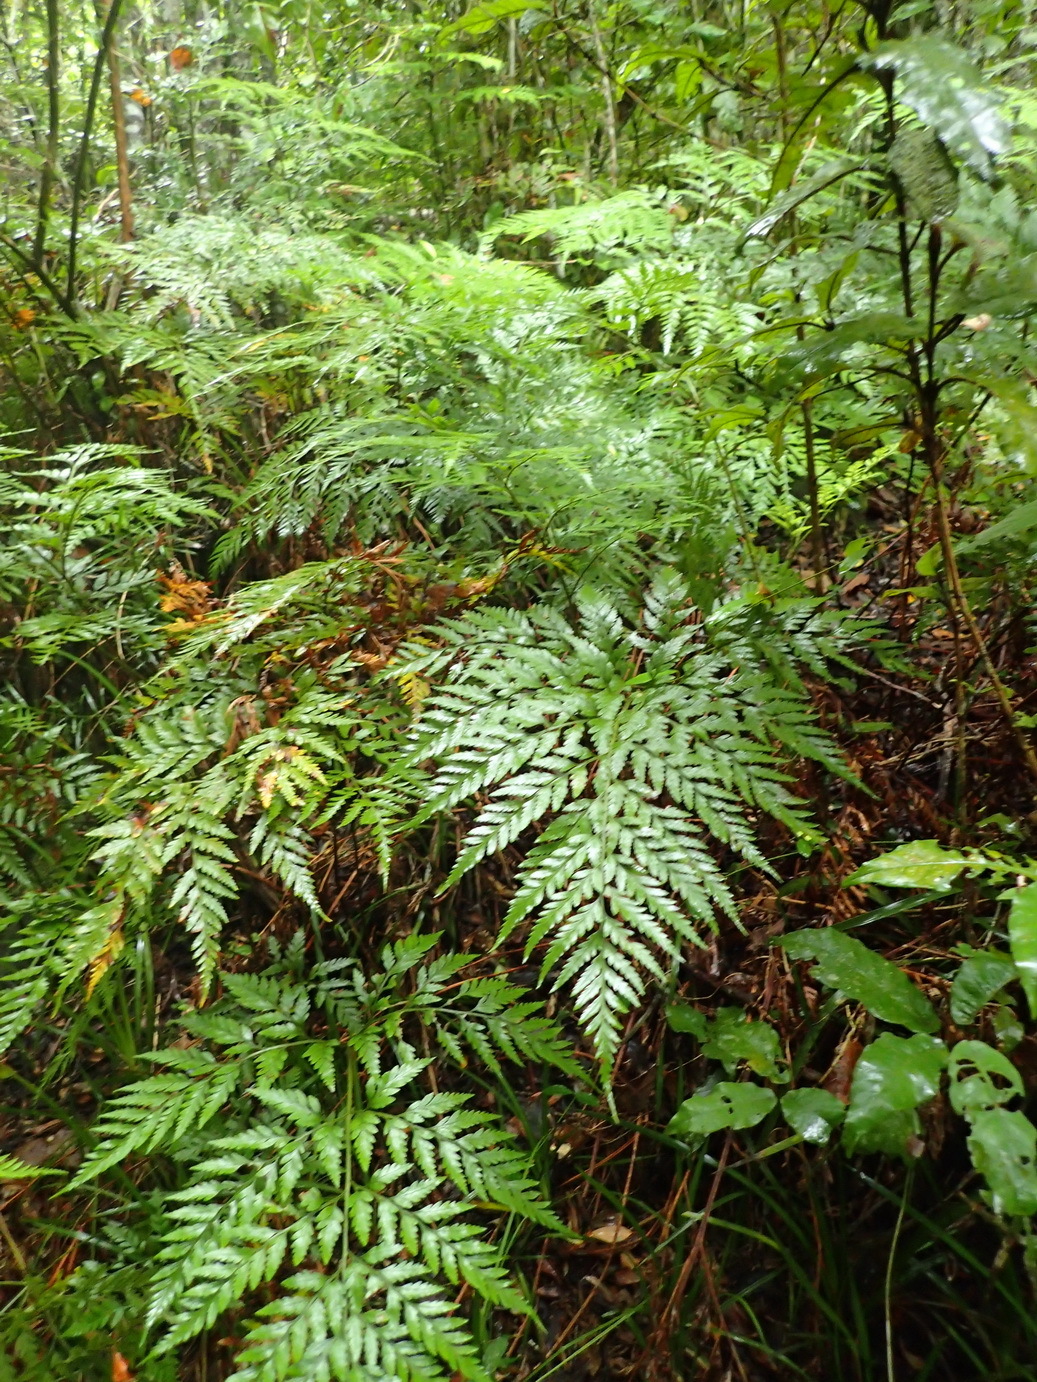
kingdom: Plantae
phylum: Tracheophyta
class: Polypodiopsida
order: Polypodiales
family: Dryopteridaceae
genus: Rumohra
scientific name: Rumohra adiantiformis
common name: Leather fern
